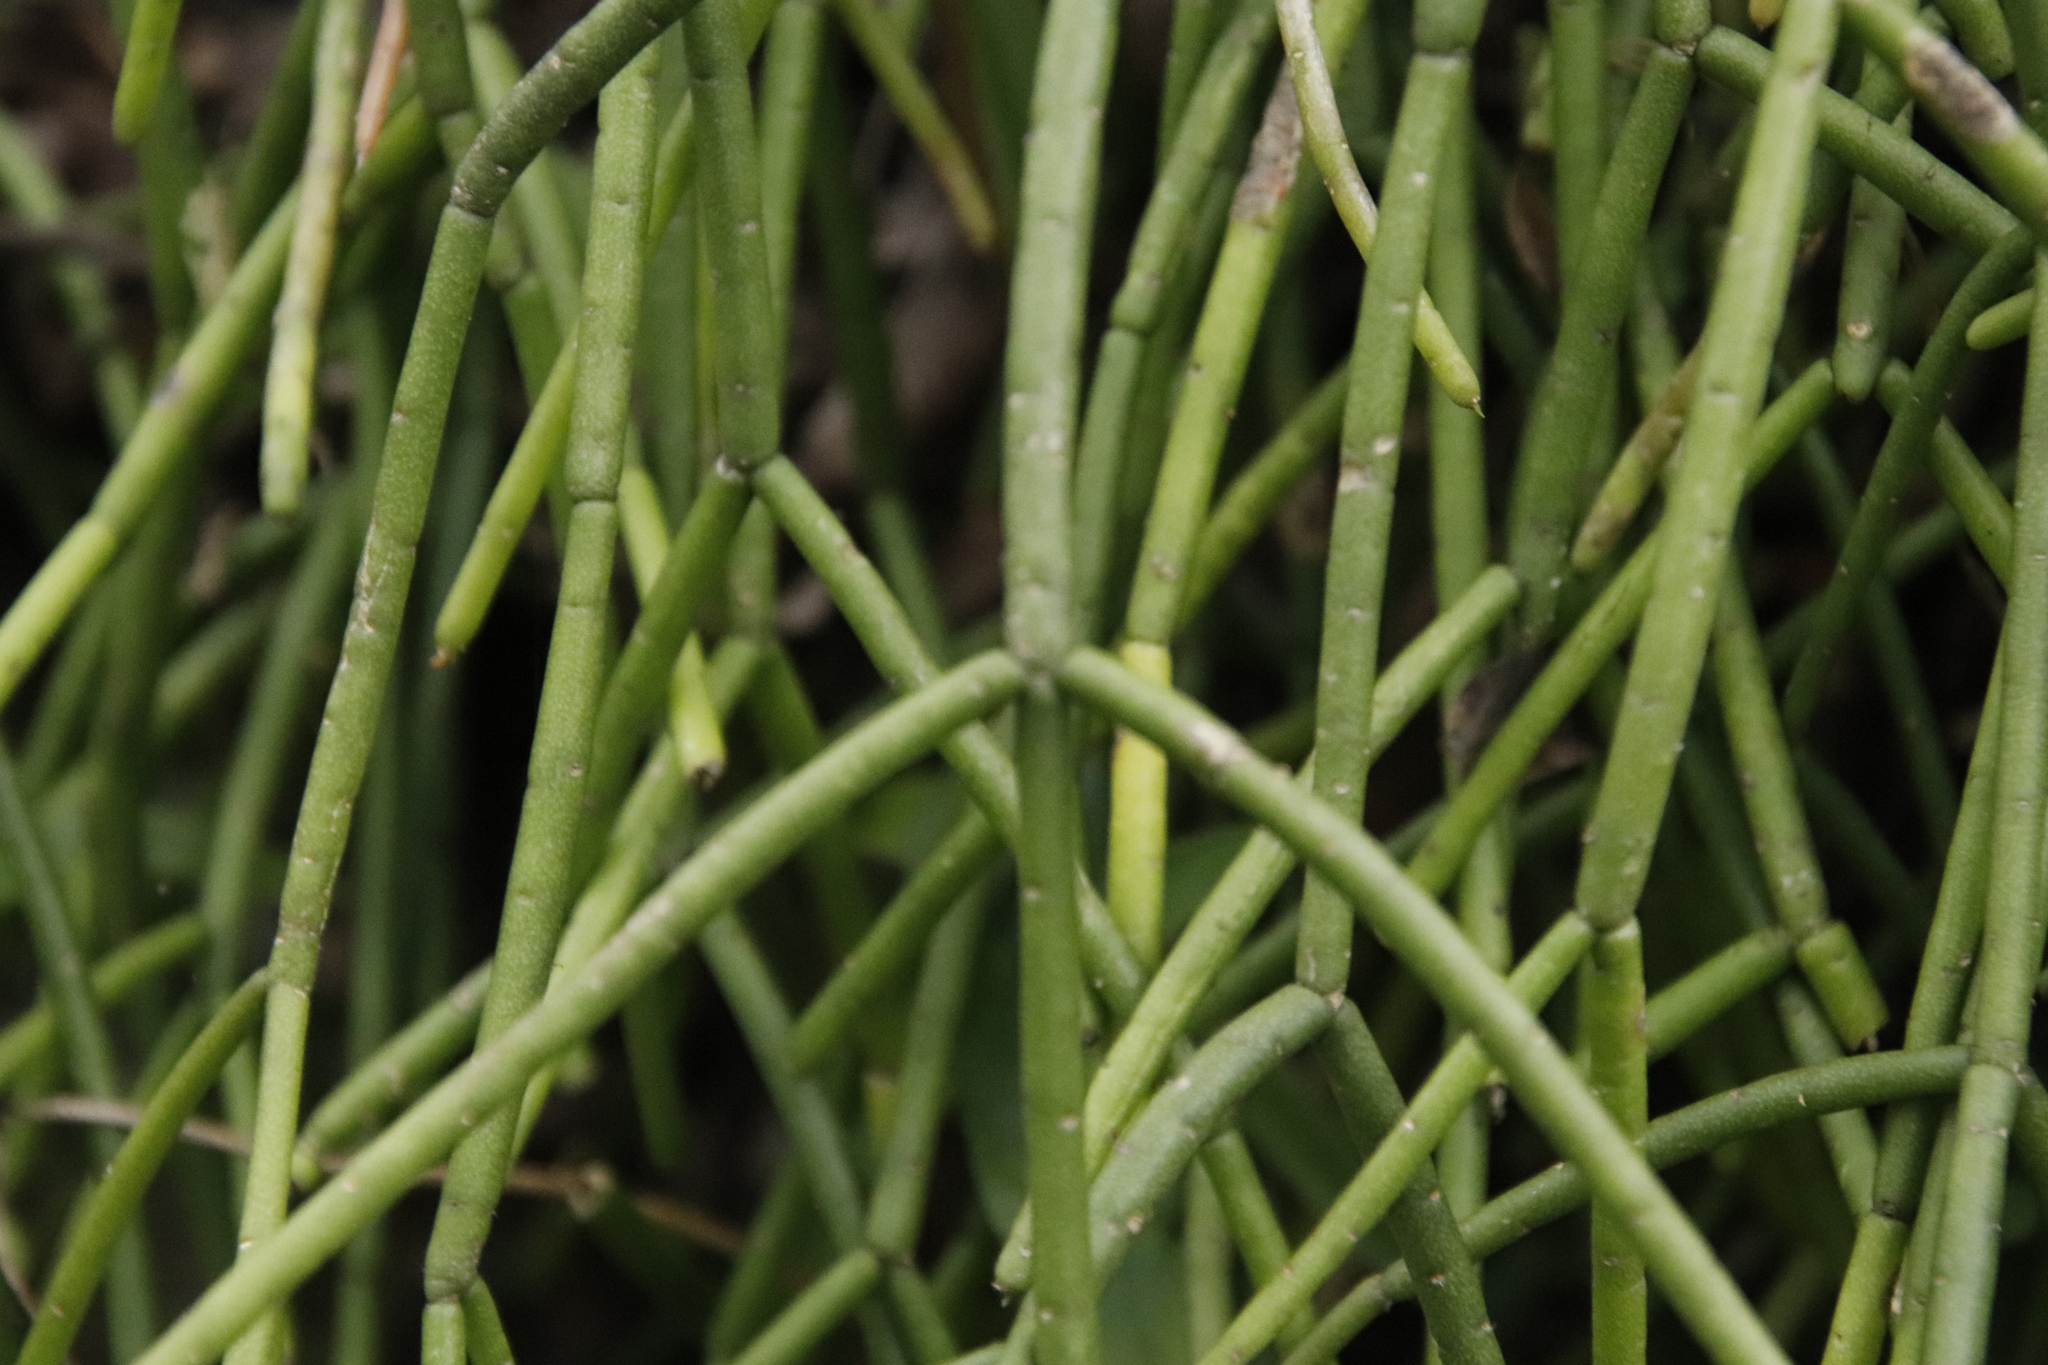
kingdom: Plantae
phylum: Tracheophyta
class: Magnoliopsida
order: Caryophyllales
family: Cactaceae
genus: Rhipsalis
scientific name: Rhipsalis baccifera
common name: Mistletoe cactus
